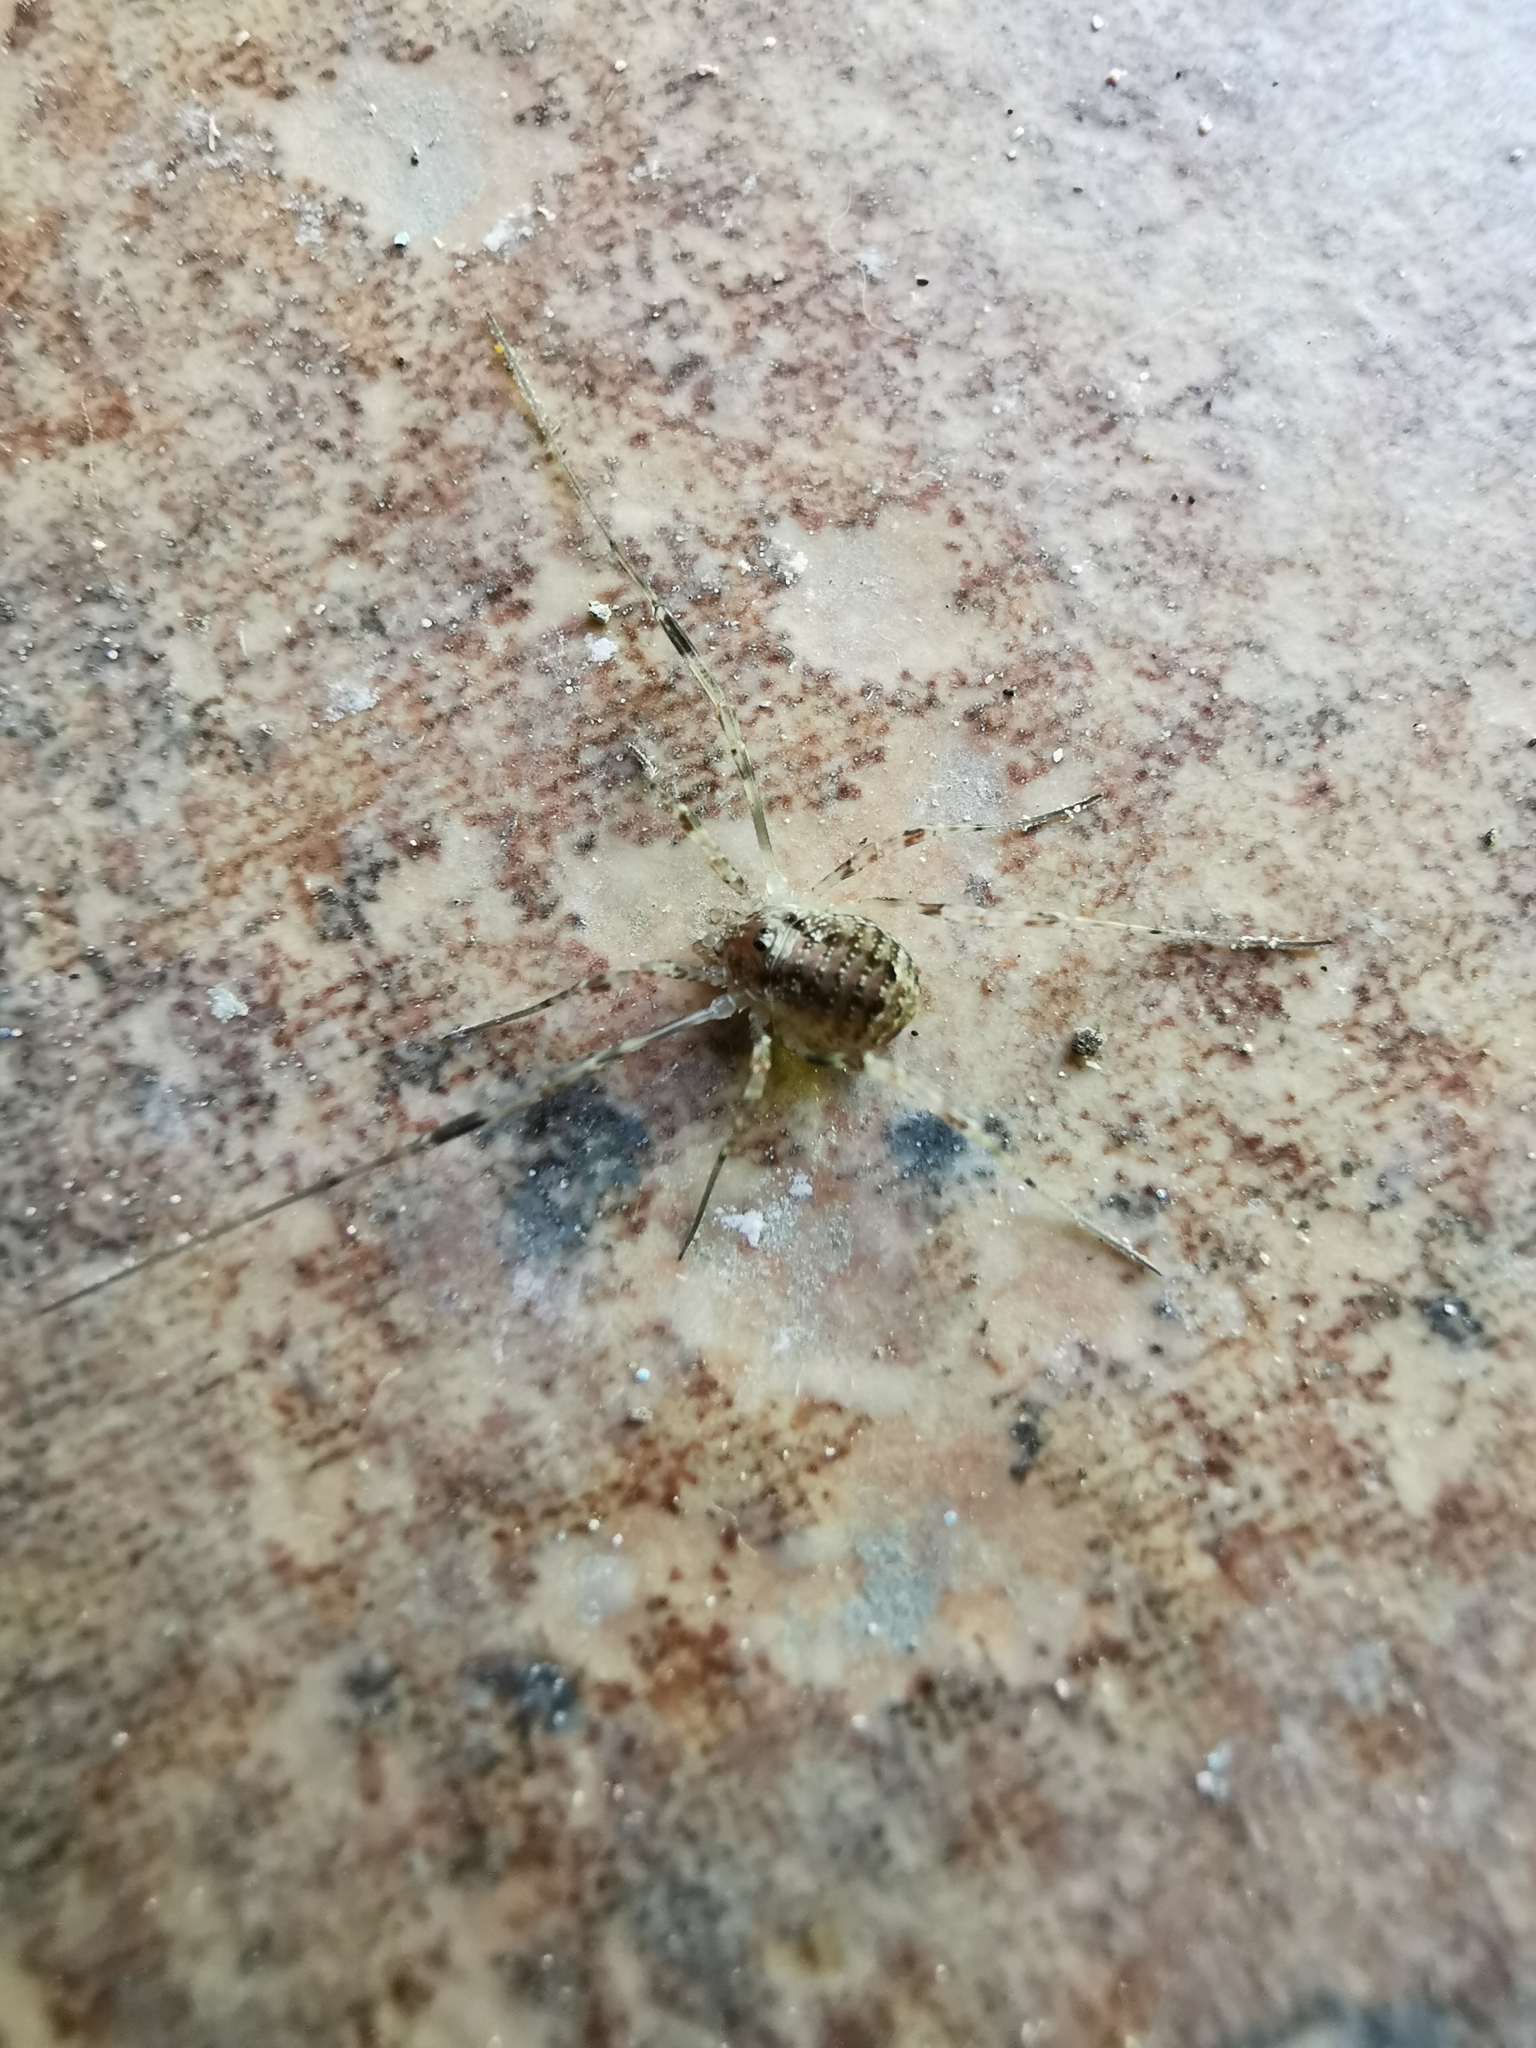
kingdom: Animalia
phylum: Arthropoda
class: Arachnida
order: Opiliones
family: Phalangiidae
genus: Paroligolophus
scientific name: Paroligolophus agrestis
